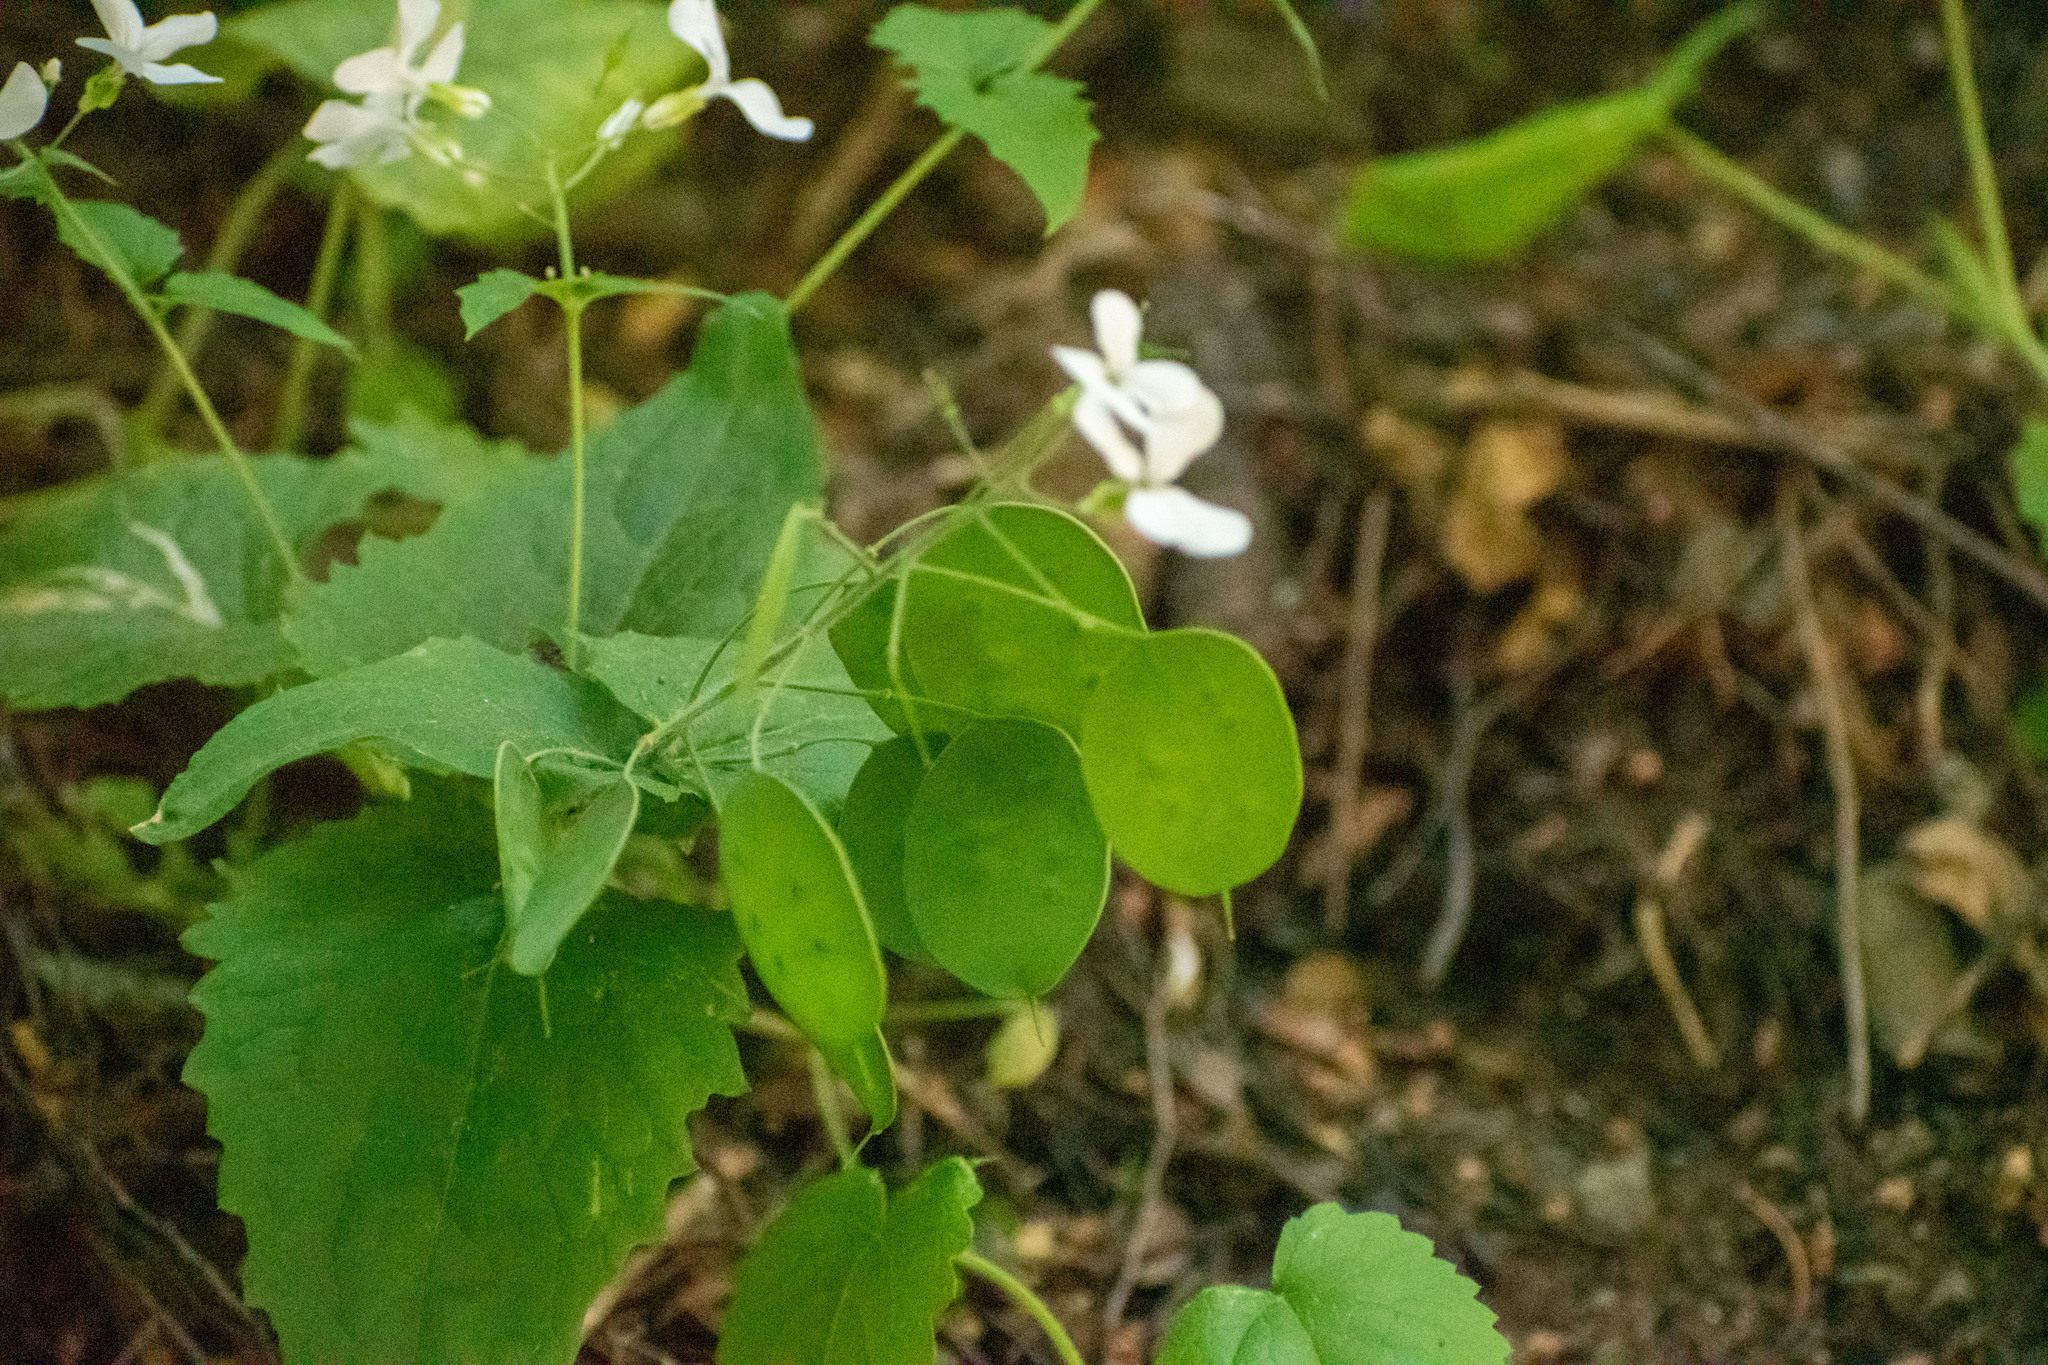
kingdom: Plantae
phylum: Tracheophyta
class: Magnoliopsida
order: Brassicales
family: Brassicaceae
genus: Lunaria
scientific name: Lunaria annua
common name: Honesty
